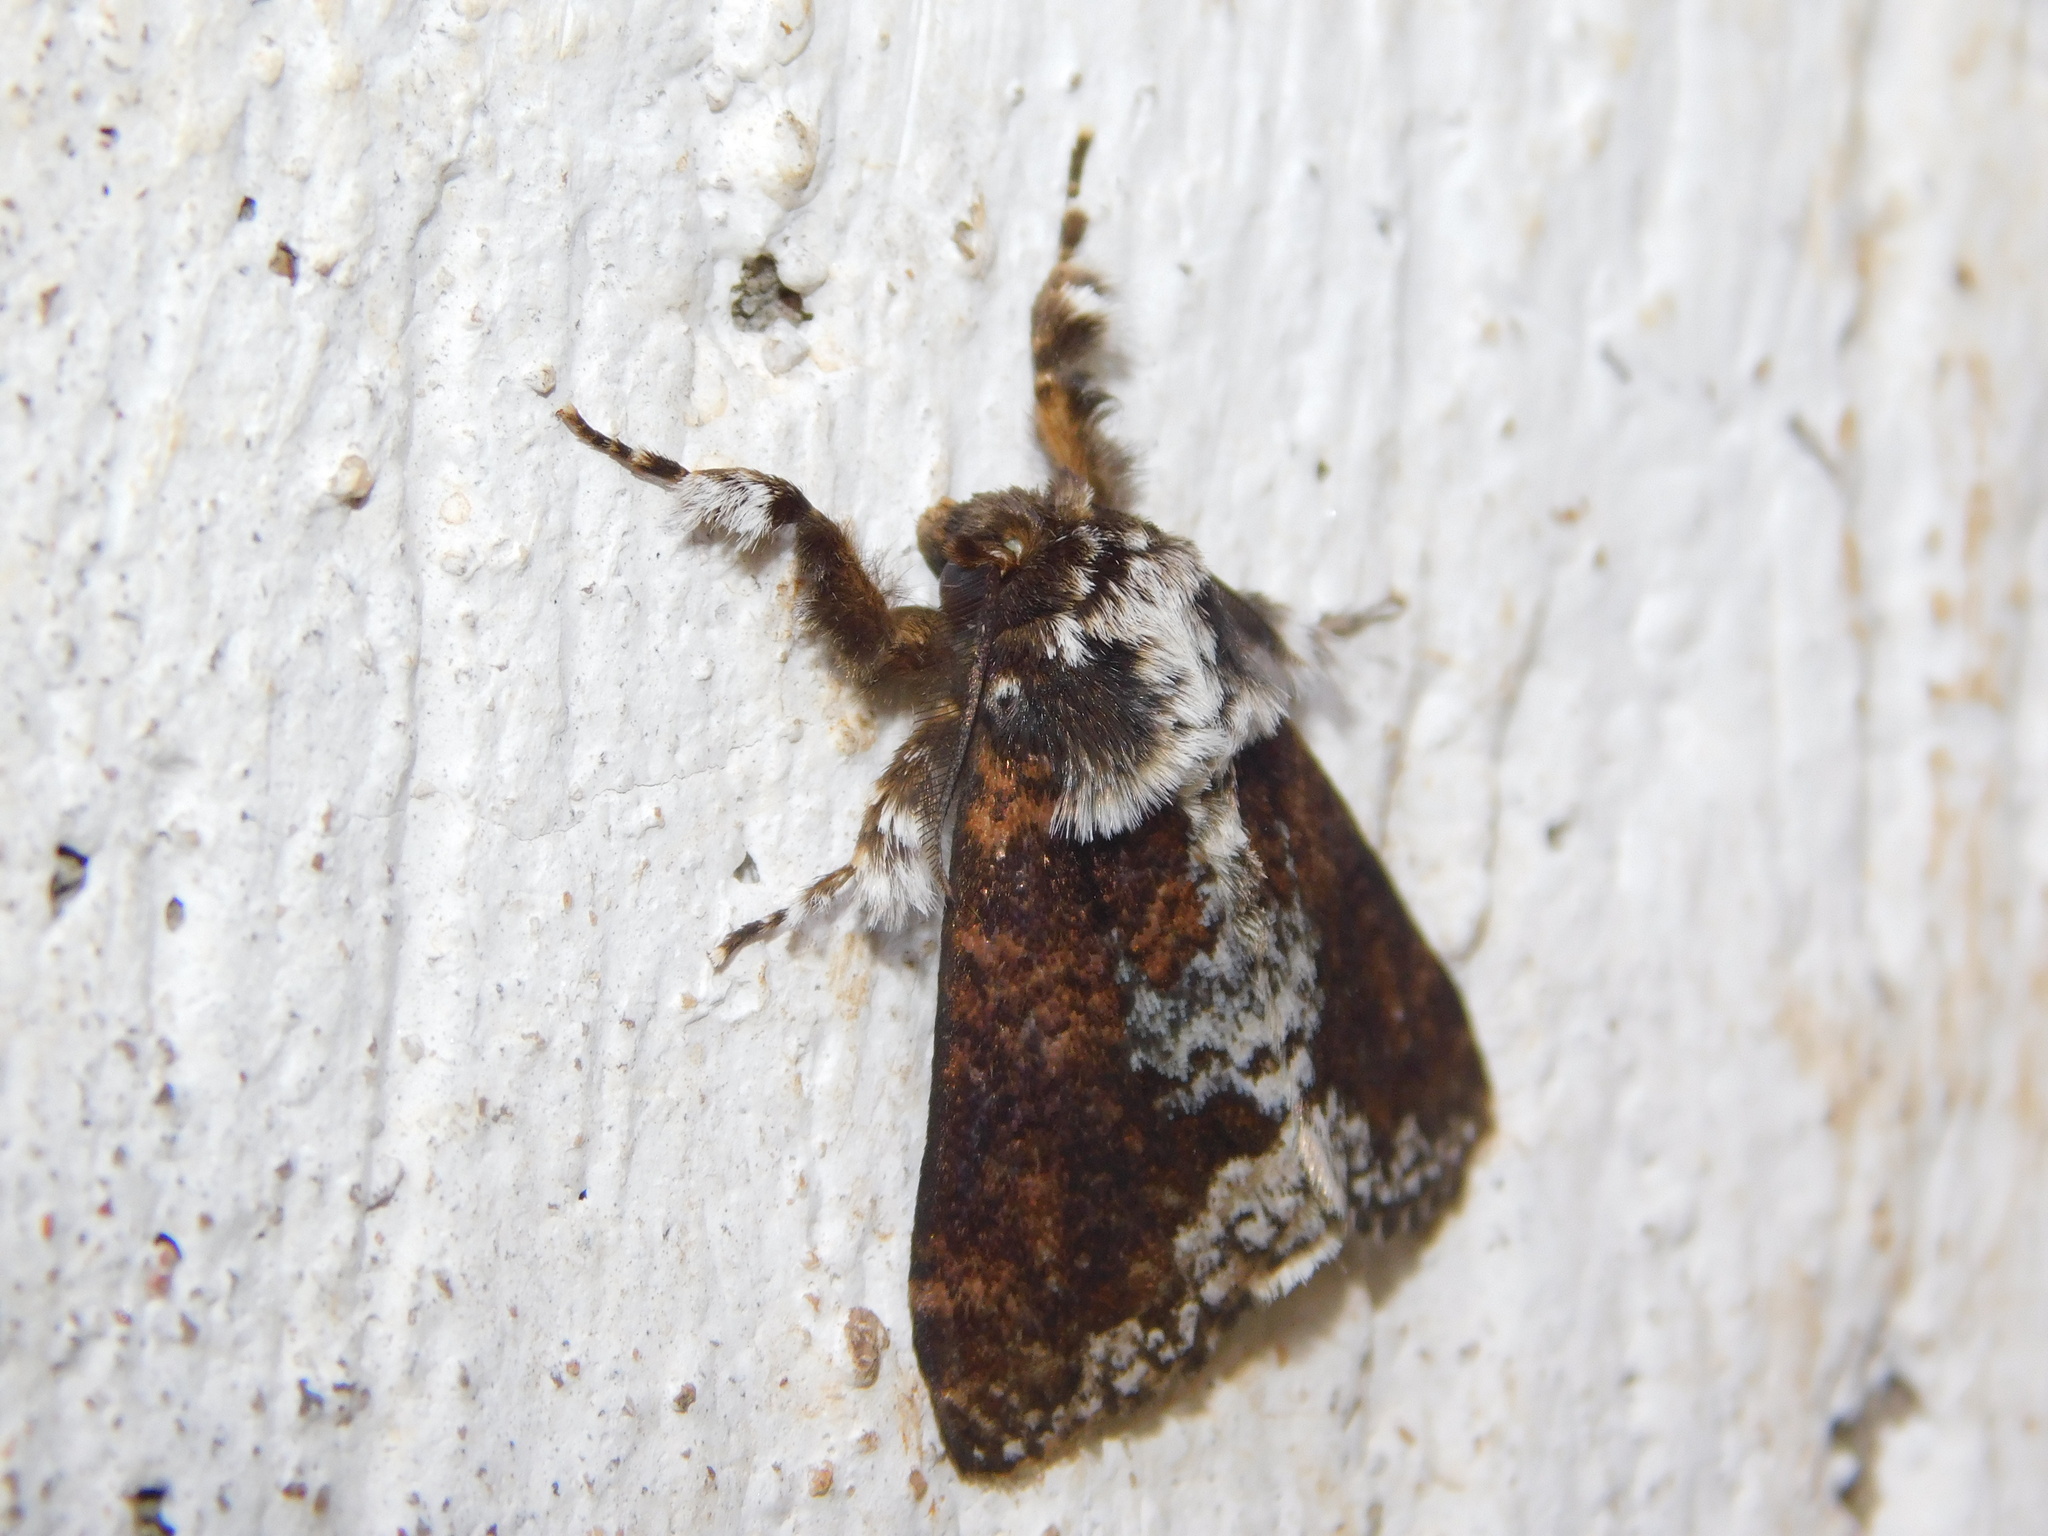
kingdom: Animalia
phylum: Arthropoda
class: Insecta
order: Lepidoptera
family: Erebidae
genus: Dasychira
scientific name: Dasychira goodii
